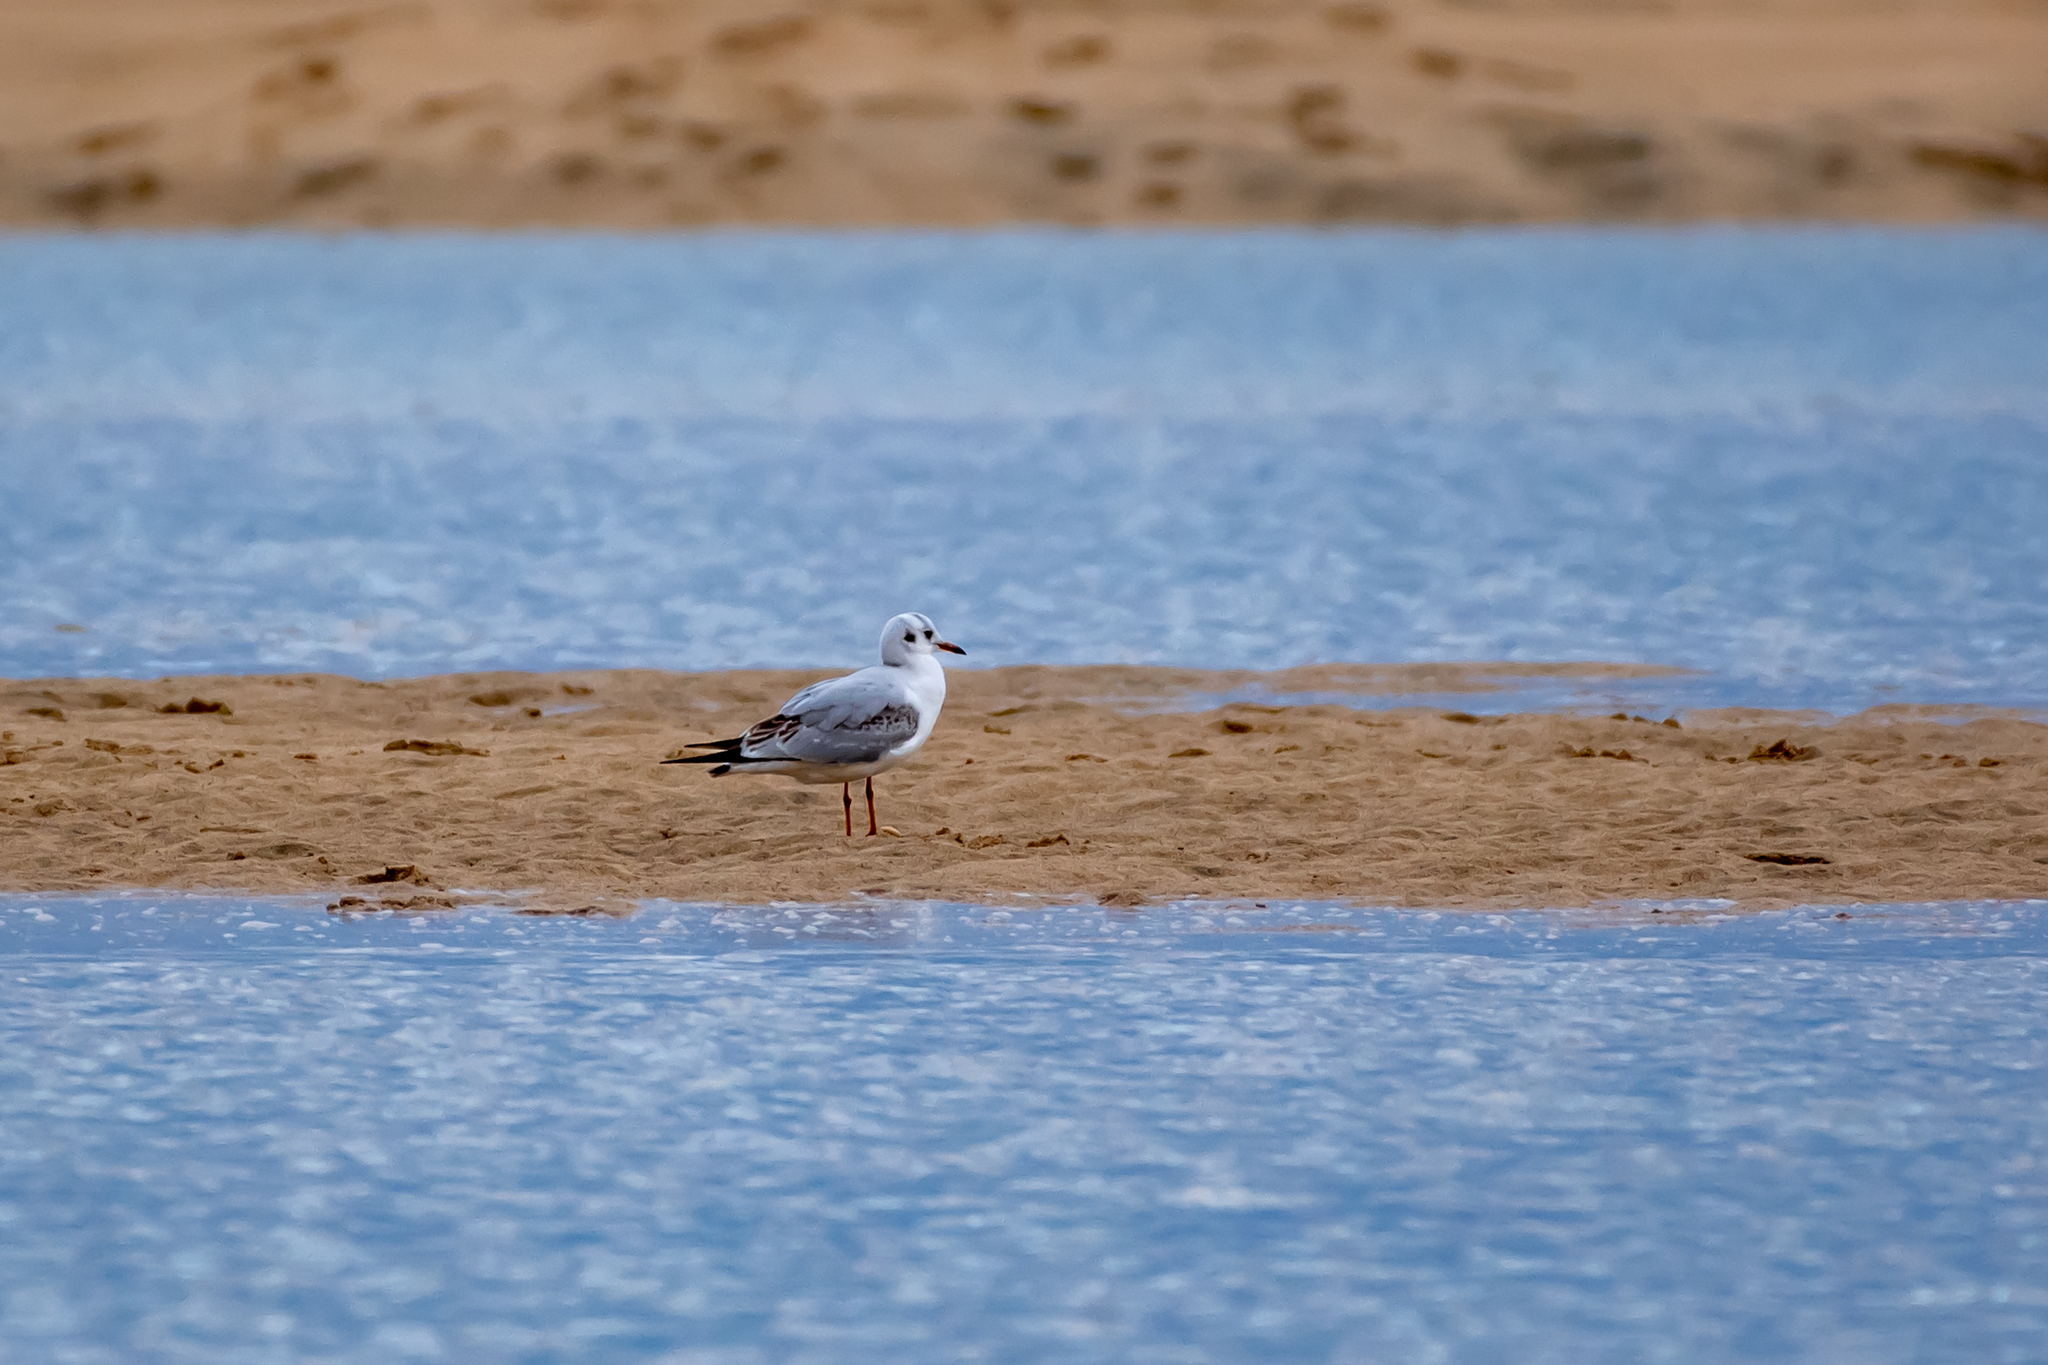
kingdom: Animalia
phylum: Chordata
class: Aves
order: Charadriiformes
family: Laridae
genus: Chroicocephalus
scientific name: Chroicocephalus ridibundus
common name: Black-headed gull
